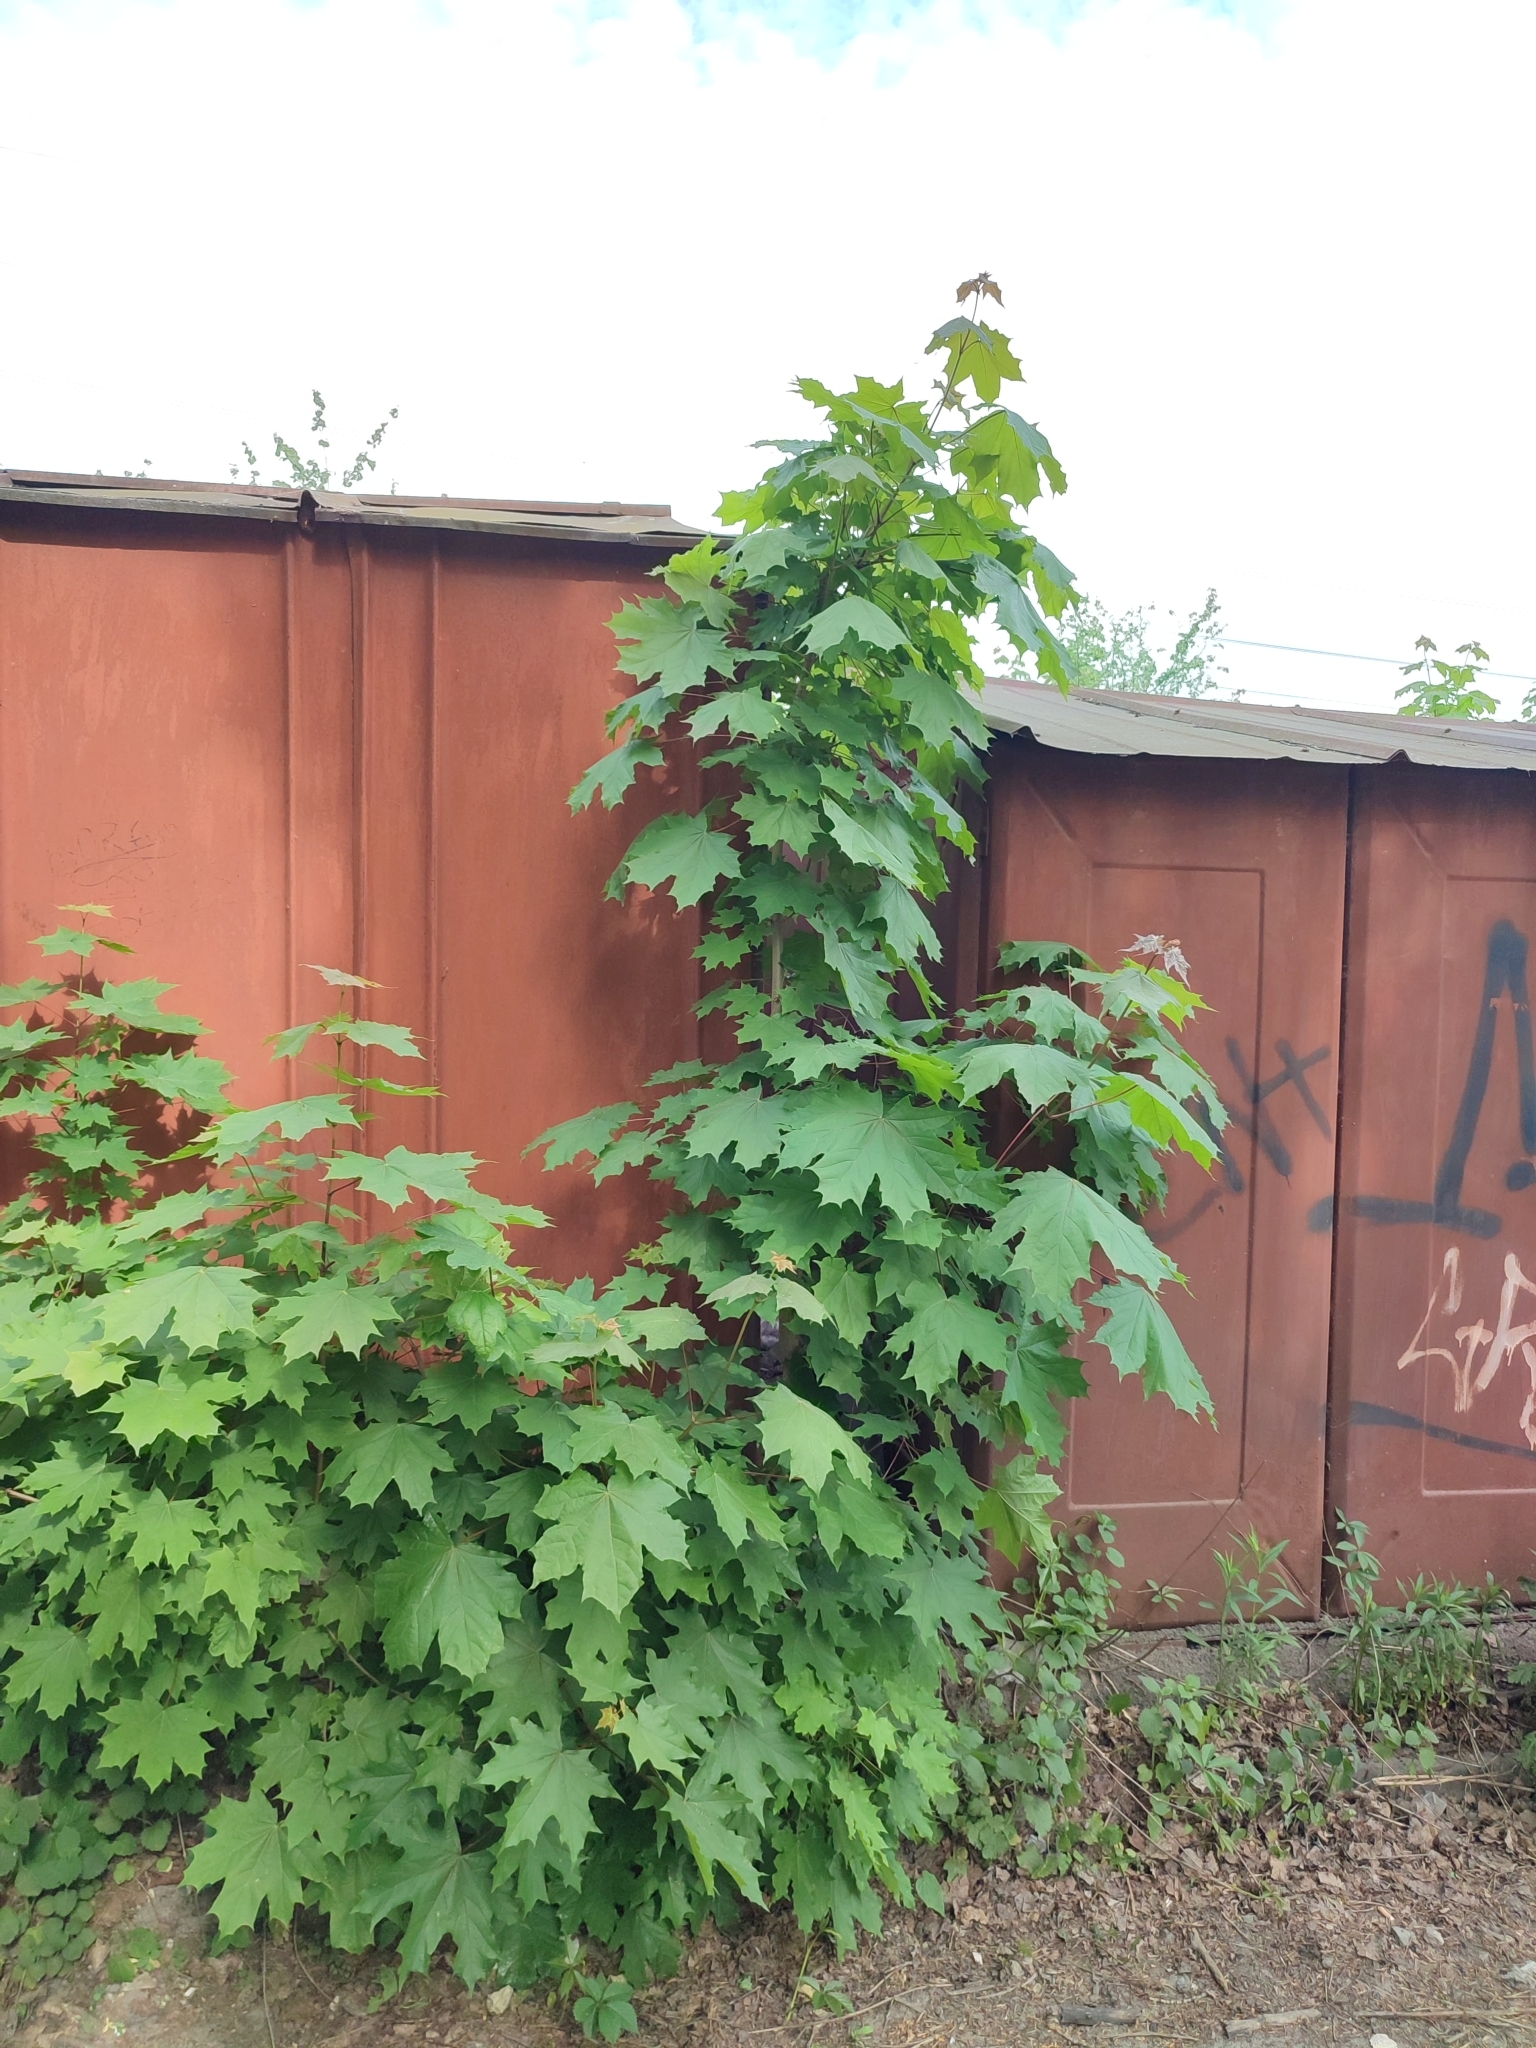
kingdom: Plantae
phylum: Tracheophyta
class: Magnoliopsida
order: Sapindales
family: Sapindaceae
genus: Acer
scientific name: Acer platanoides
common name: Norway maple
